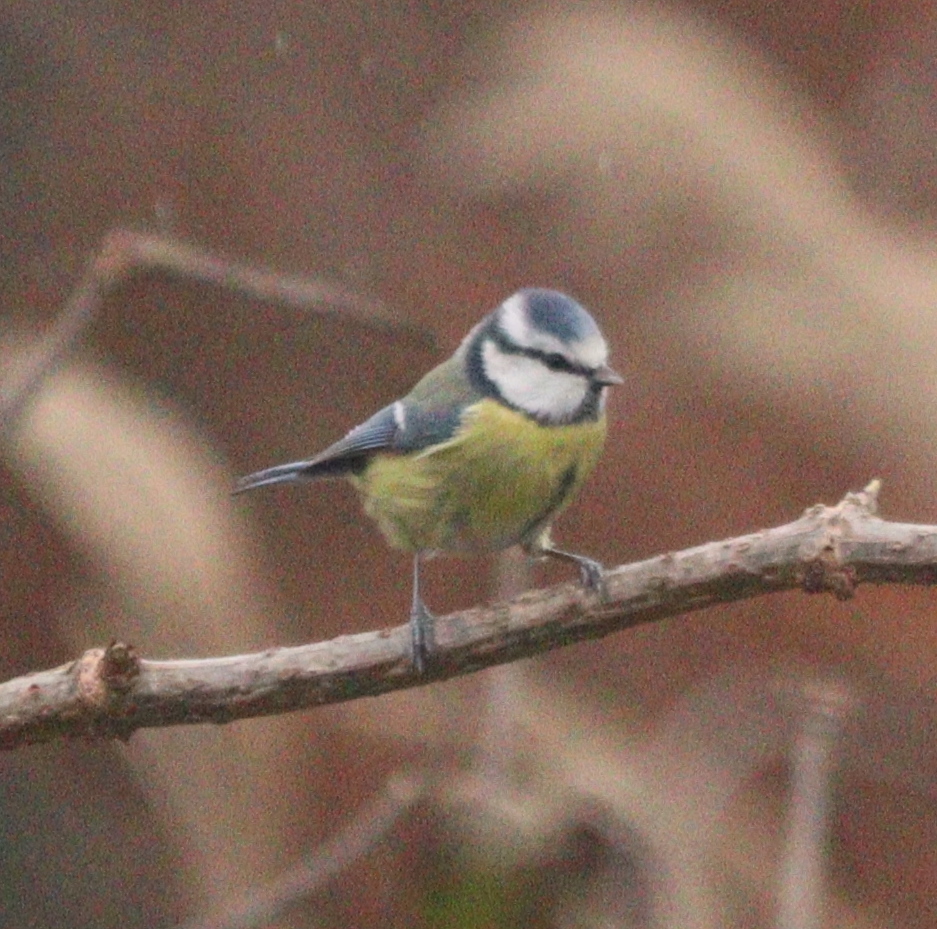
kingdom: Animalia
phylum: Chordata
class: Aves
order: Passeriformes
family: Paridae
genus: Cyanistes
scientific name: Cyanistes caeruleus
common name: Eurasian blue tit
